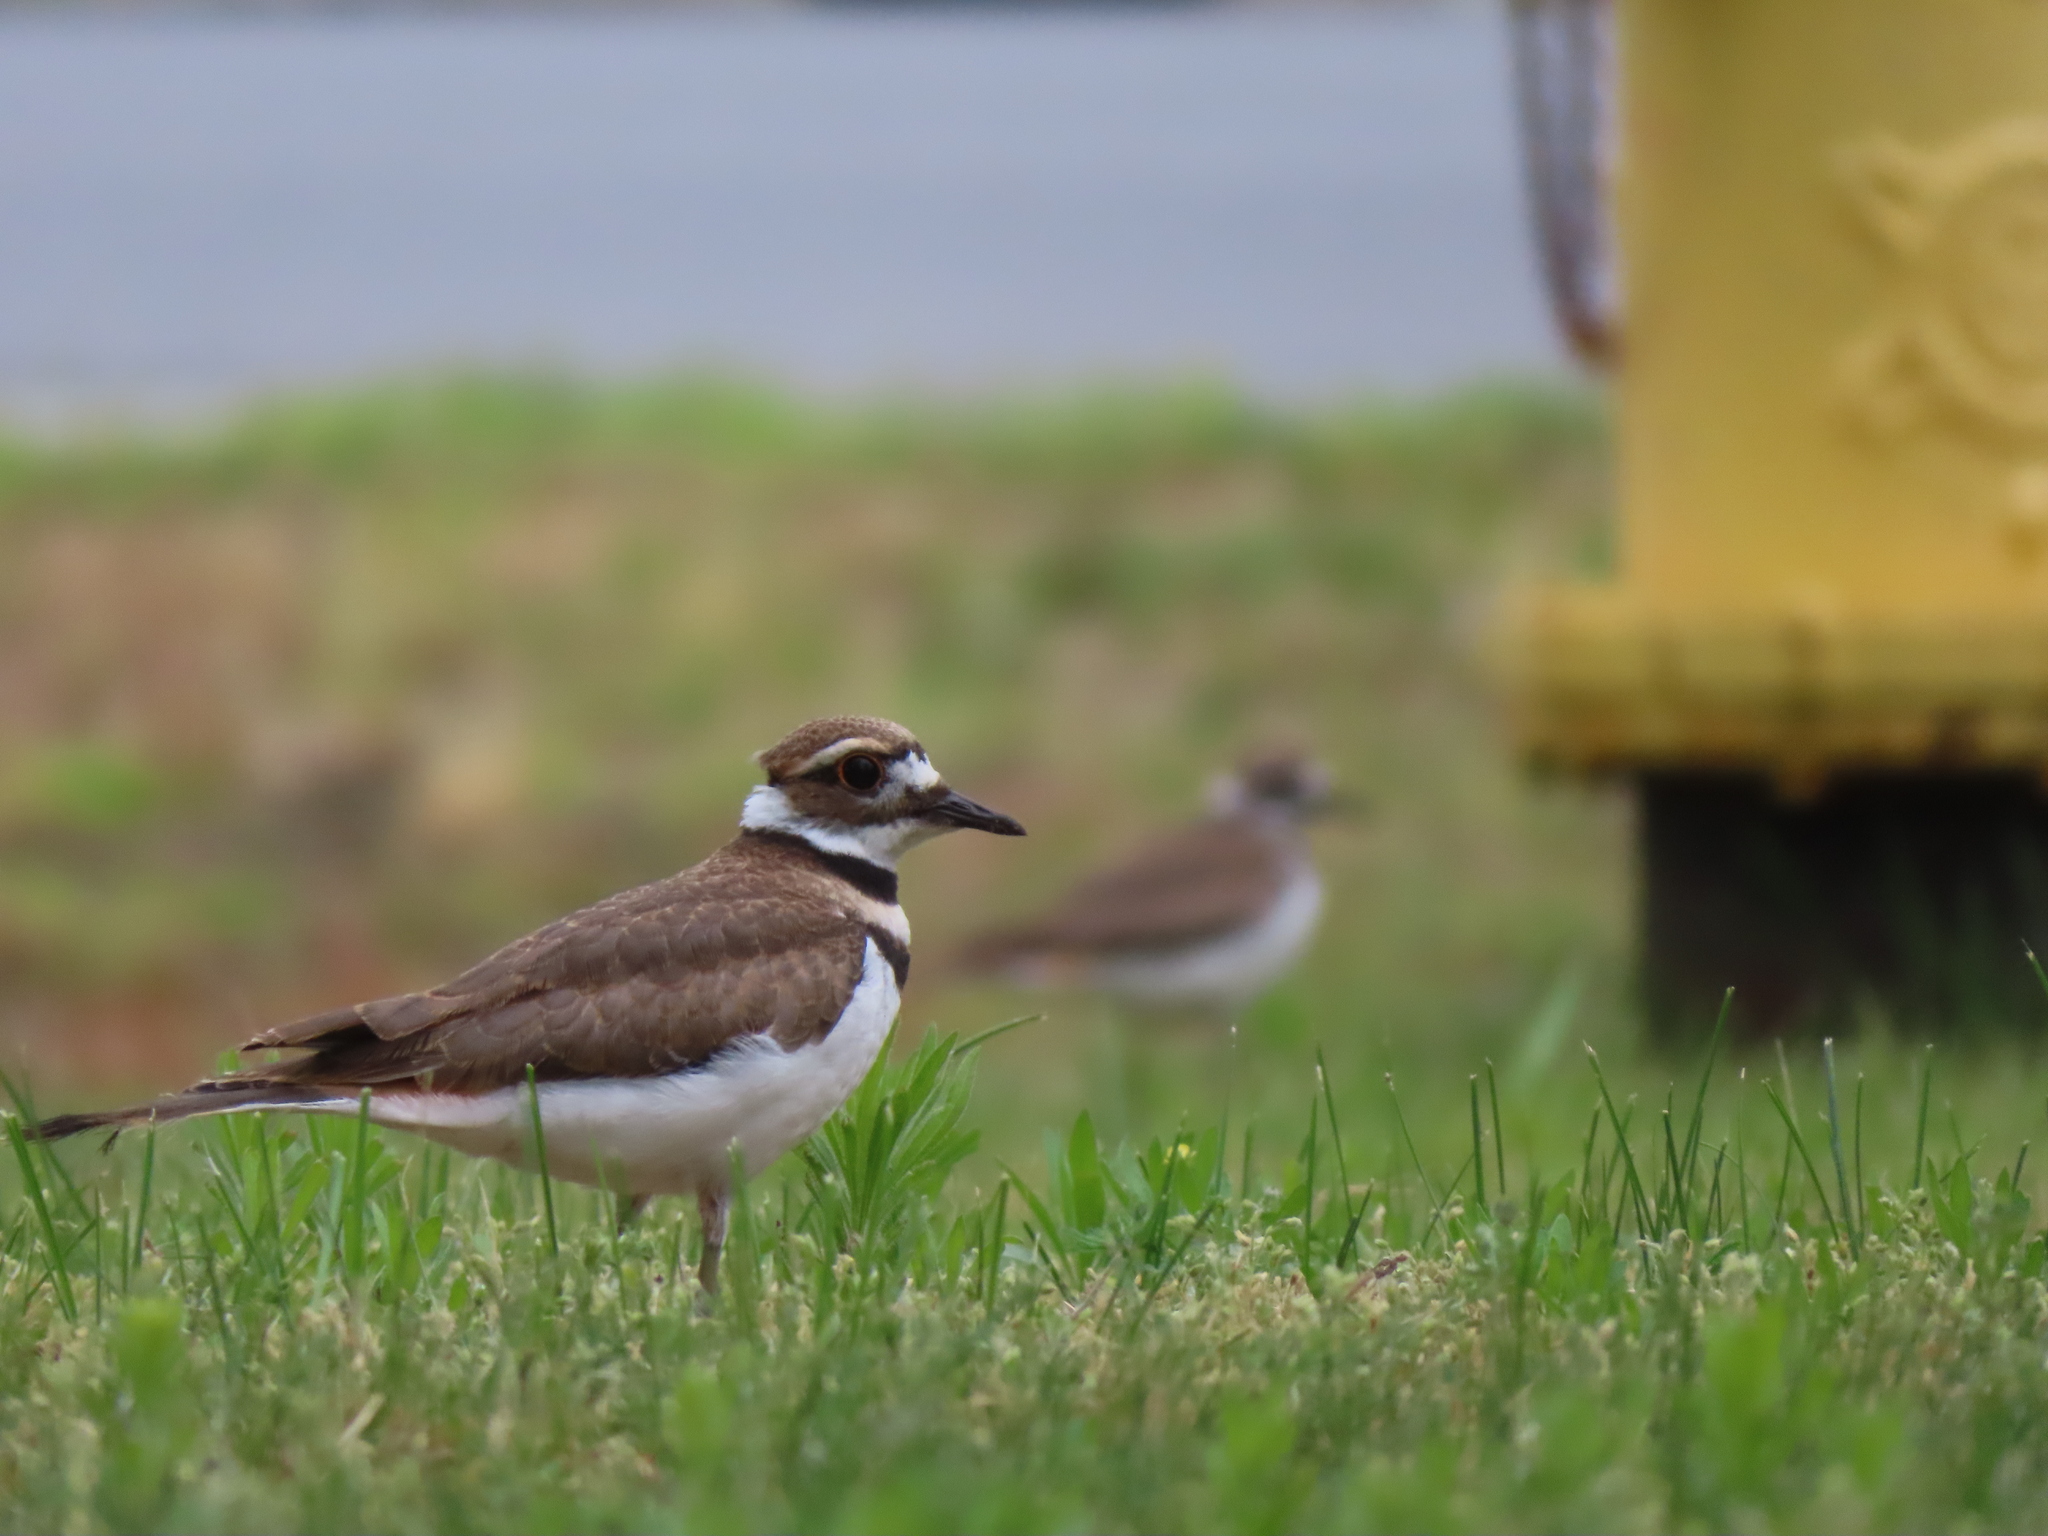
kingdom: Animalia
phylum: Chordata
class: Aves
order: Charadriiformes
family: Charadriidae
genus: Charadrius
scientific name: Charadrius vociferus
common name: Killdeer
